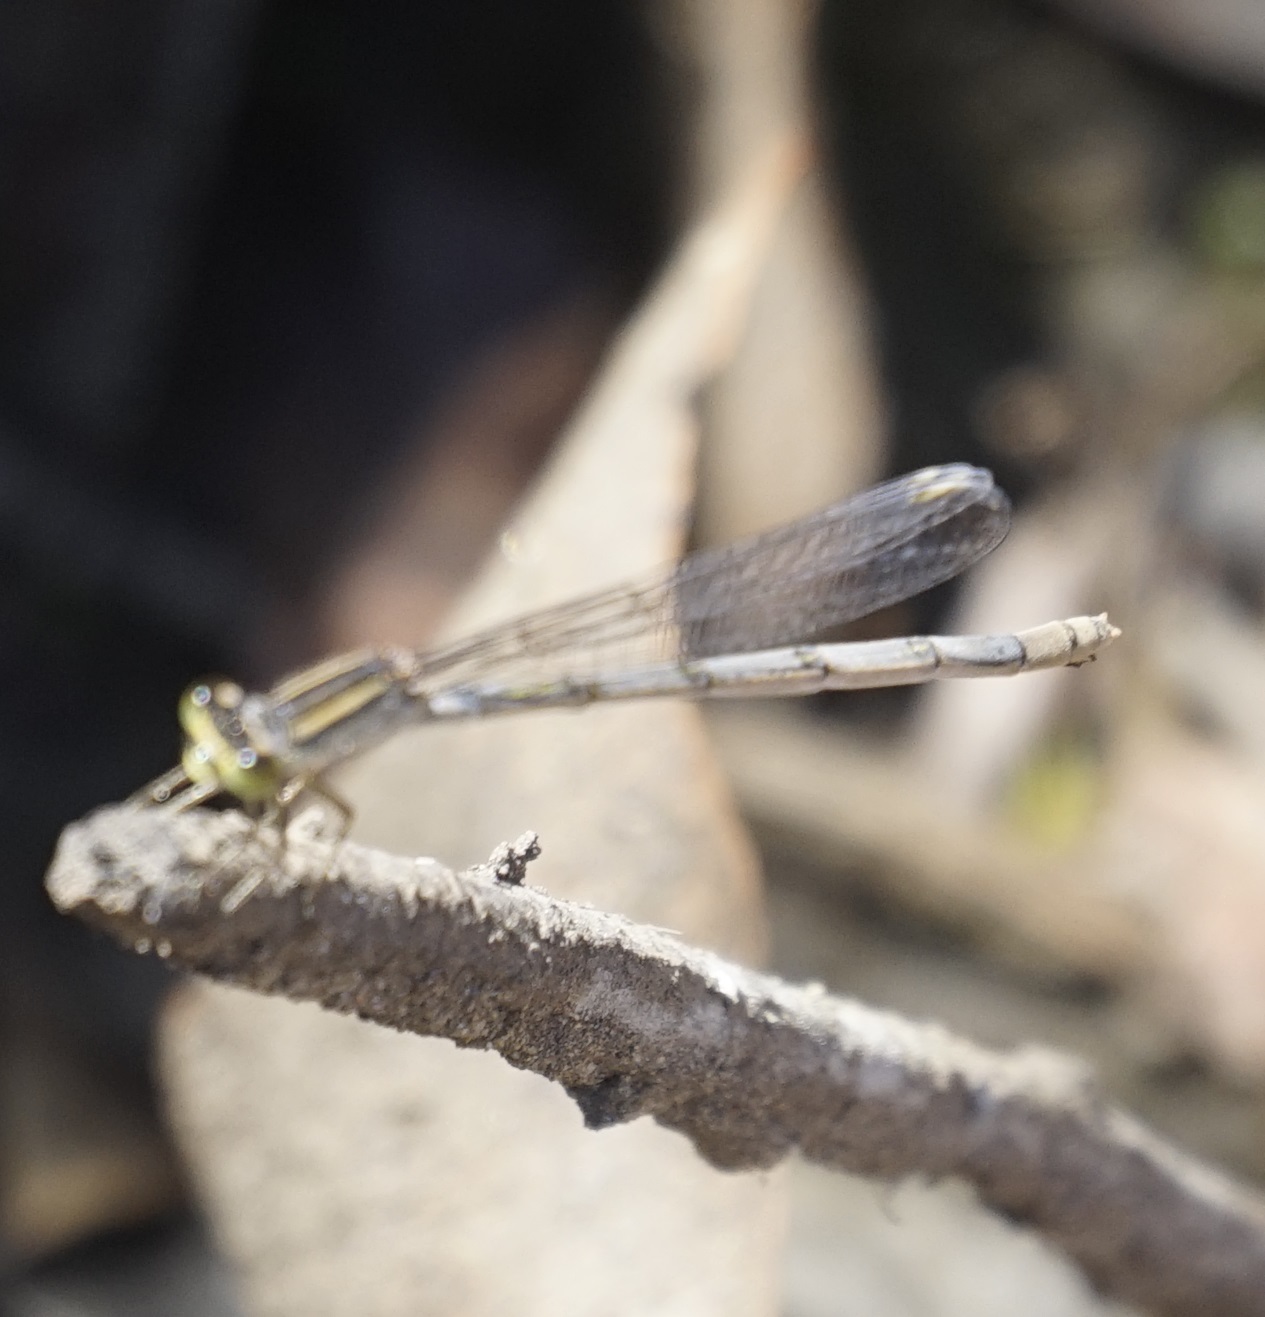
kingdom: Animalia
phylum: Arthropoda
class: Insecta
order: Odonata
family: Coenagrionidae
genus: Ischnura
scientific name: Ischnura heterosticta
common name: Common bluetail
